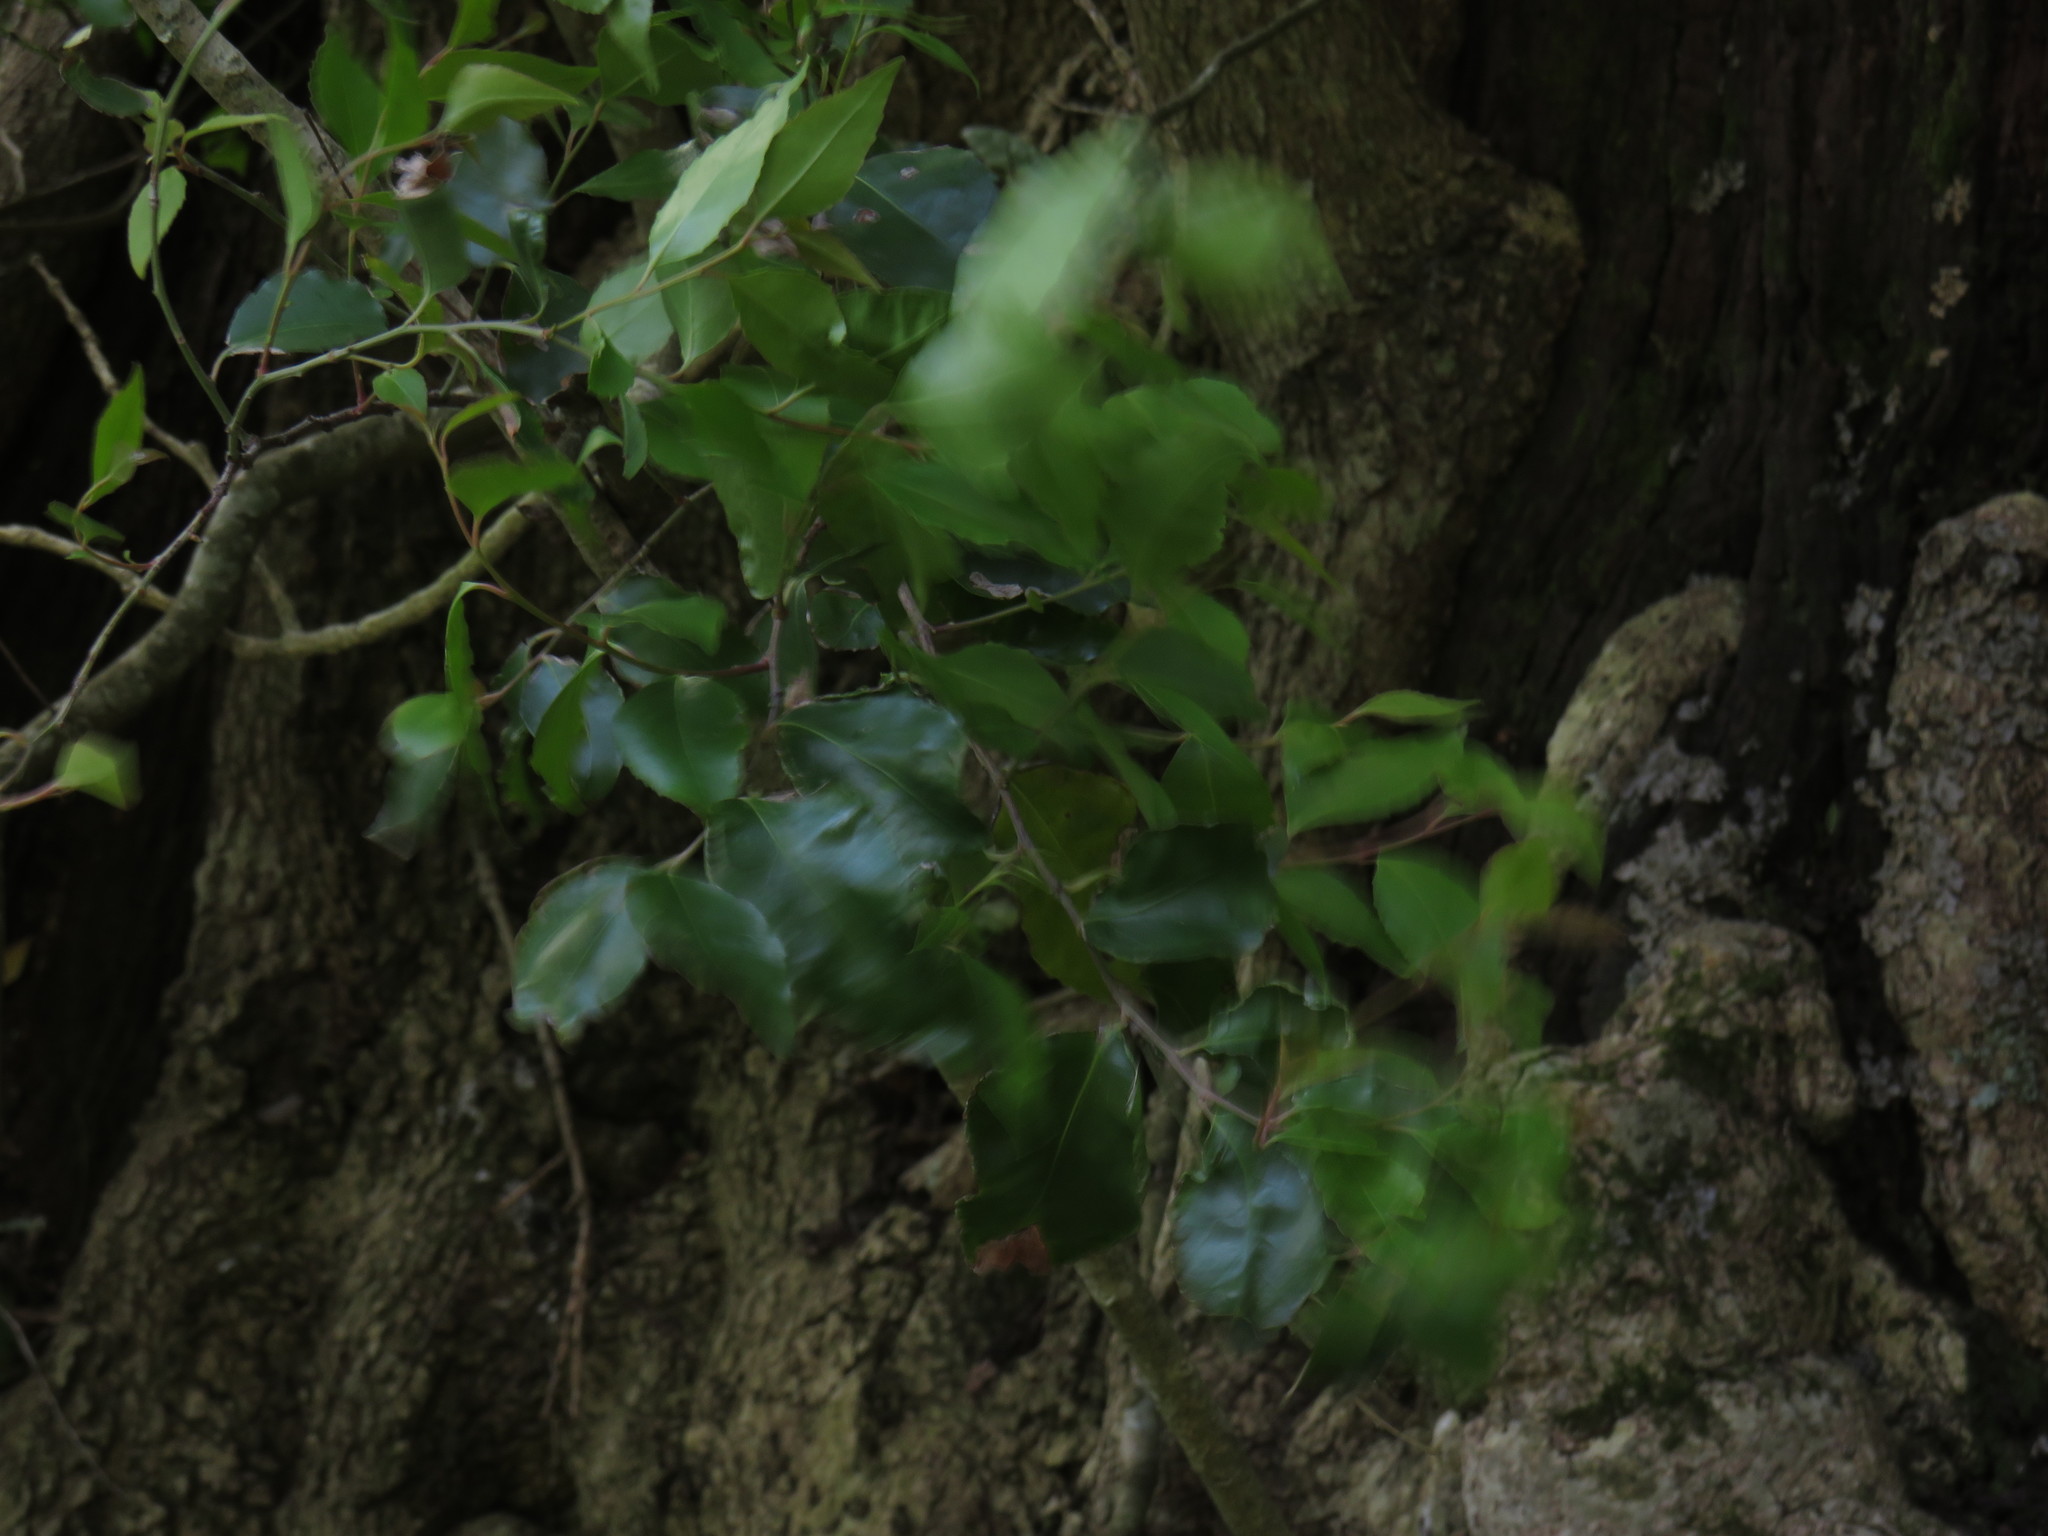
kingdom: Plantae
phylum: Tracheophyta
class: Magnoliopsida
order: Celastrales
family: Celastraceae
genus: Gymnosporia
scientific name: Gymnosporia acuminata
